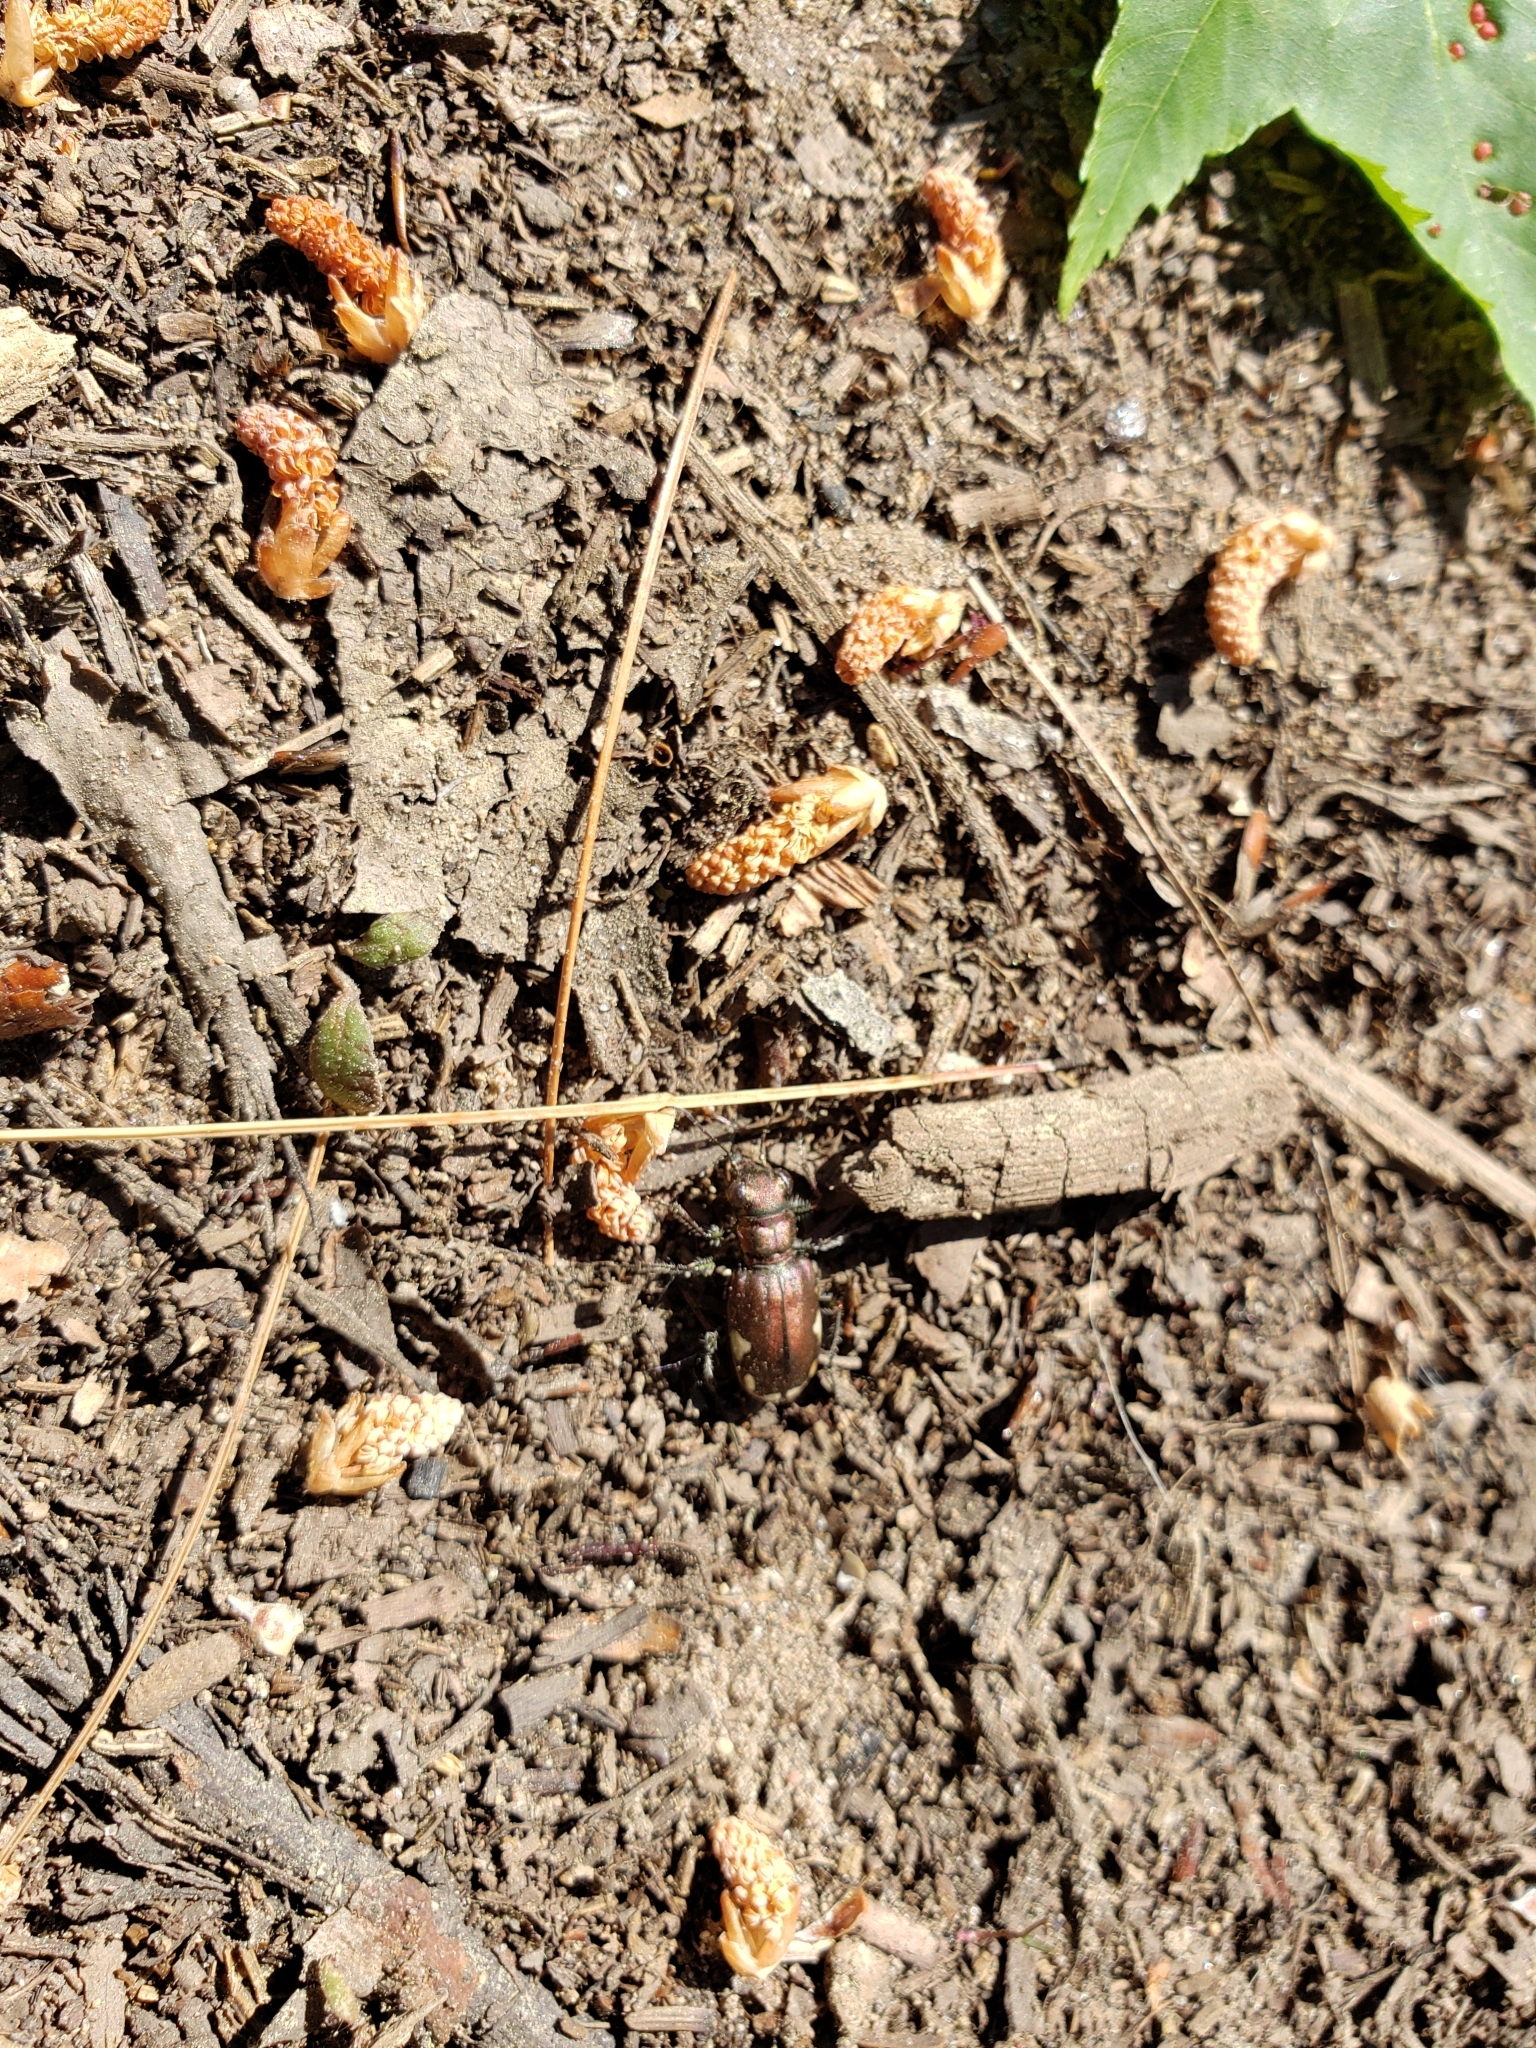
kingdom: Animalia
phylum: Arthropoda
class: Insecta
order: Coleoptera
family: Carabidae
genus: Cicindela
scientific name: Cicindela scutellaris
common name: Festive tiger beetle
